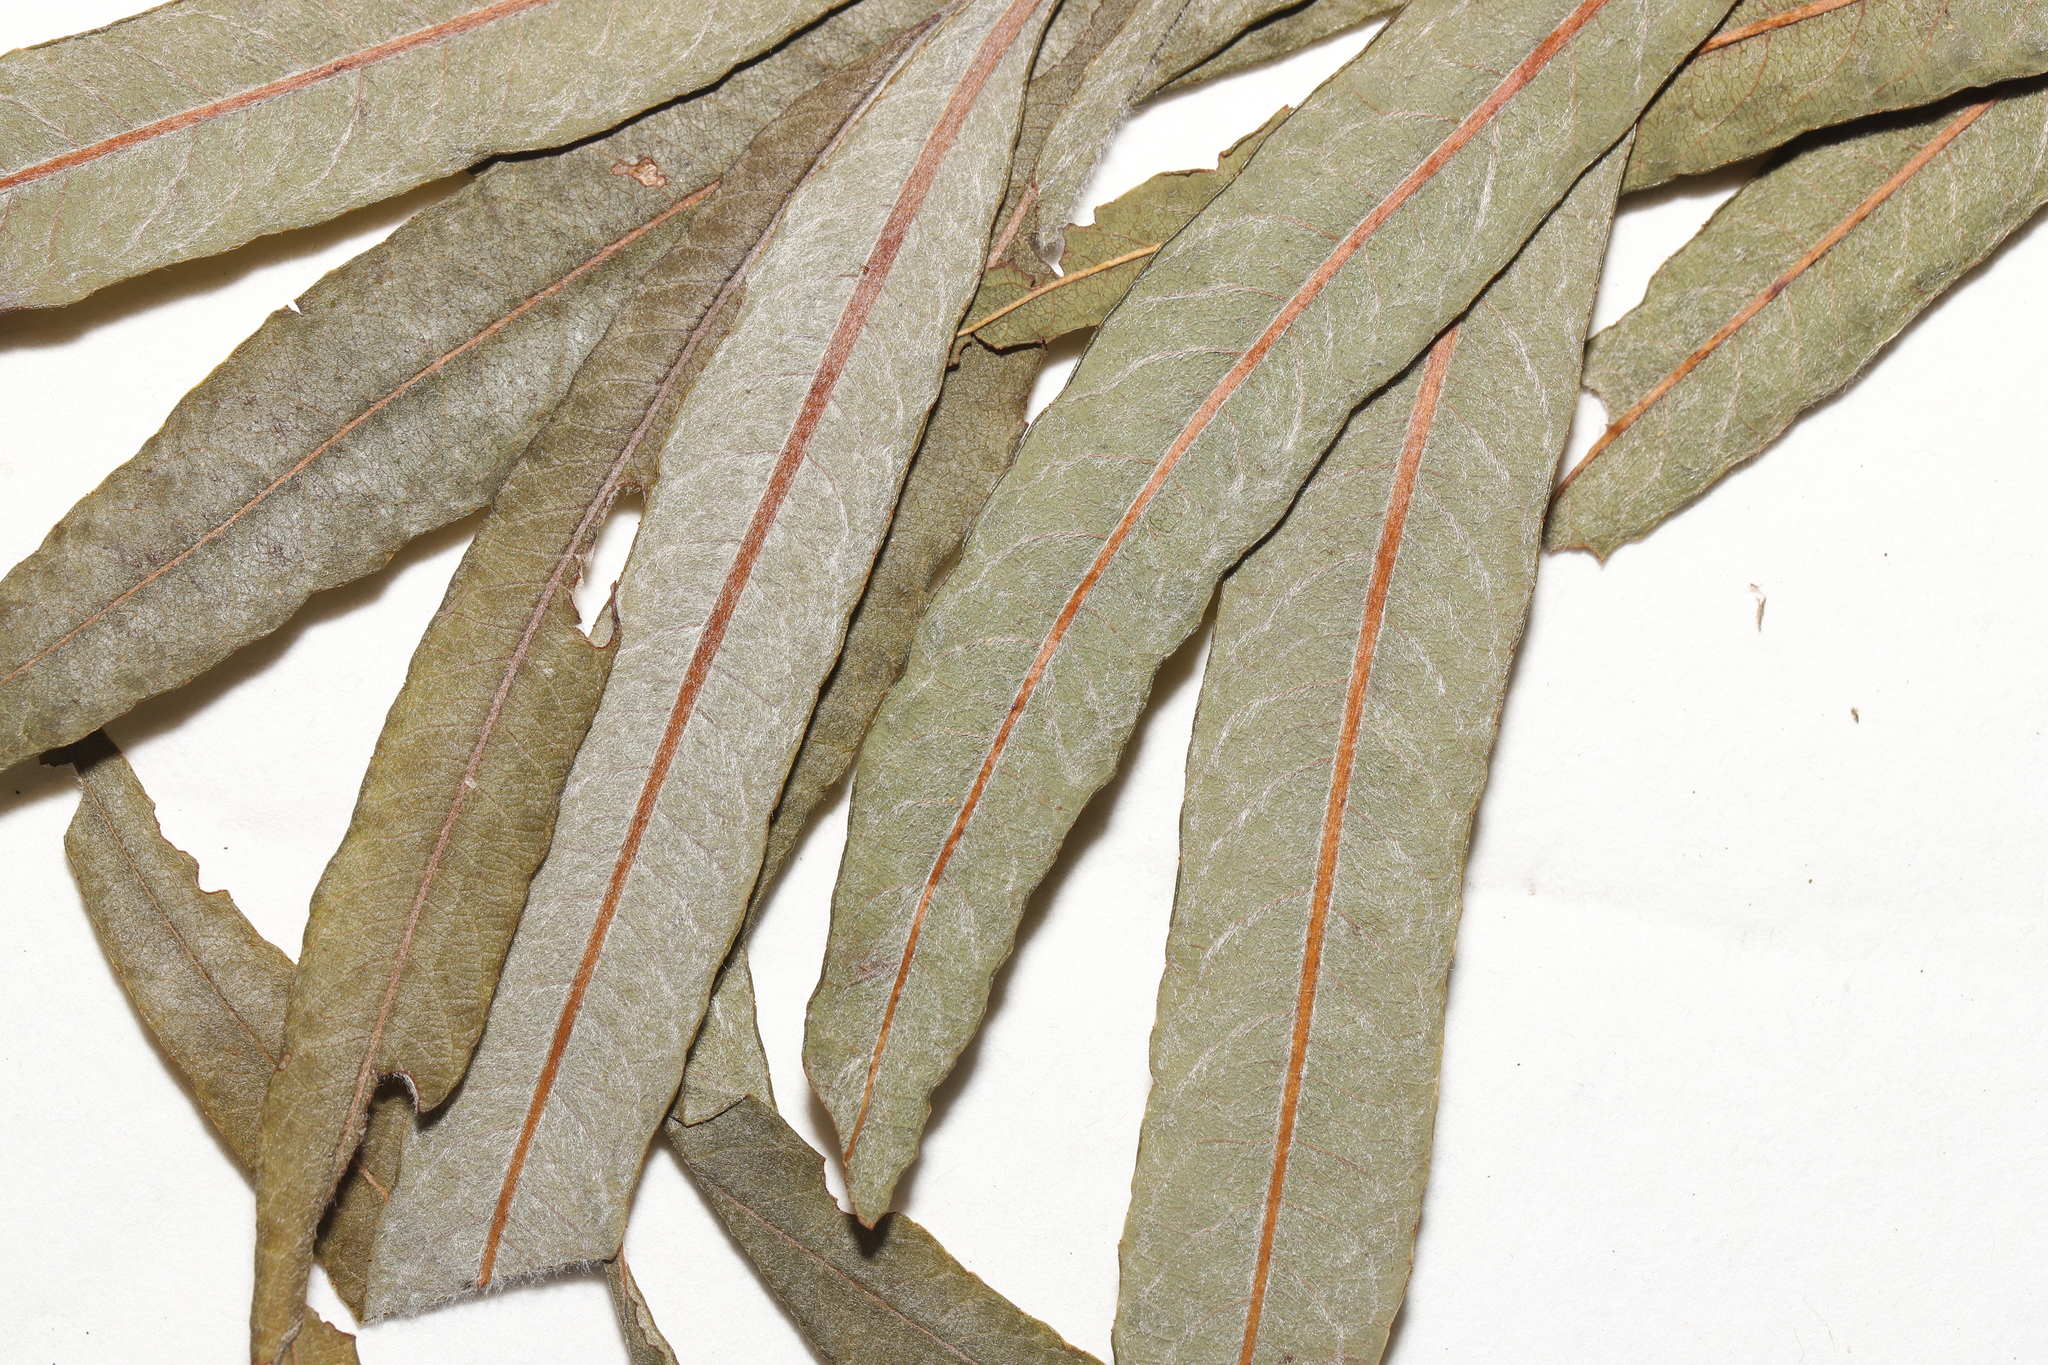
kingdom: Plantae
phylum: Tracheophyta
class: Magnoliopsida
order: Malpighiales
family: Salicaceae
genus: Salix
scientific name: Salix pellita
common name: Satiny willow
